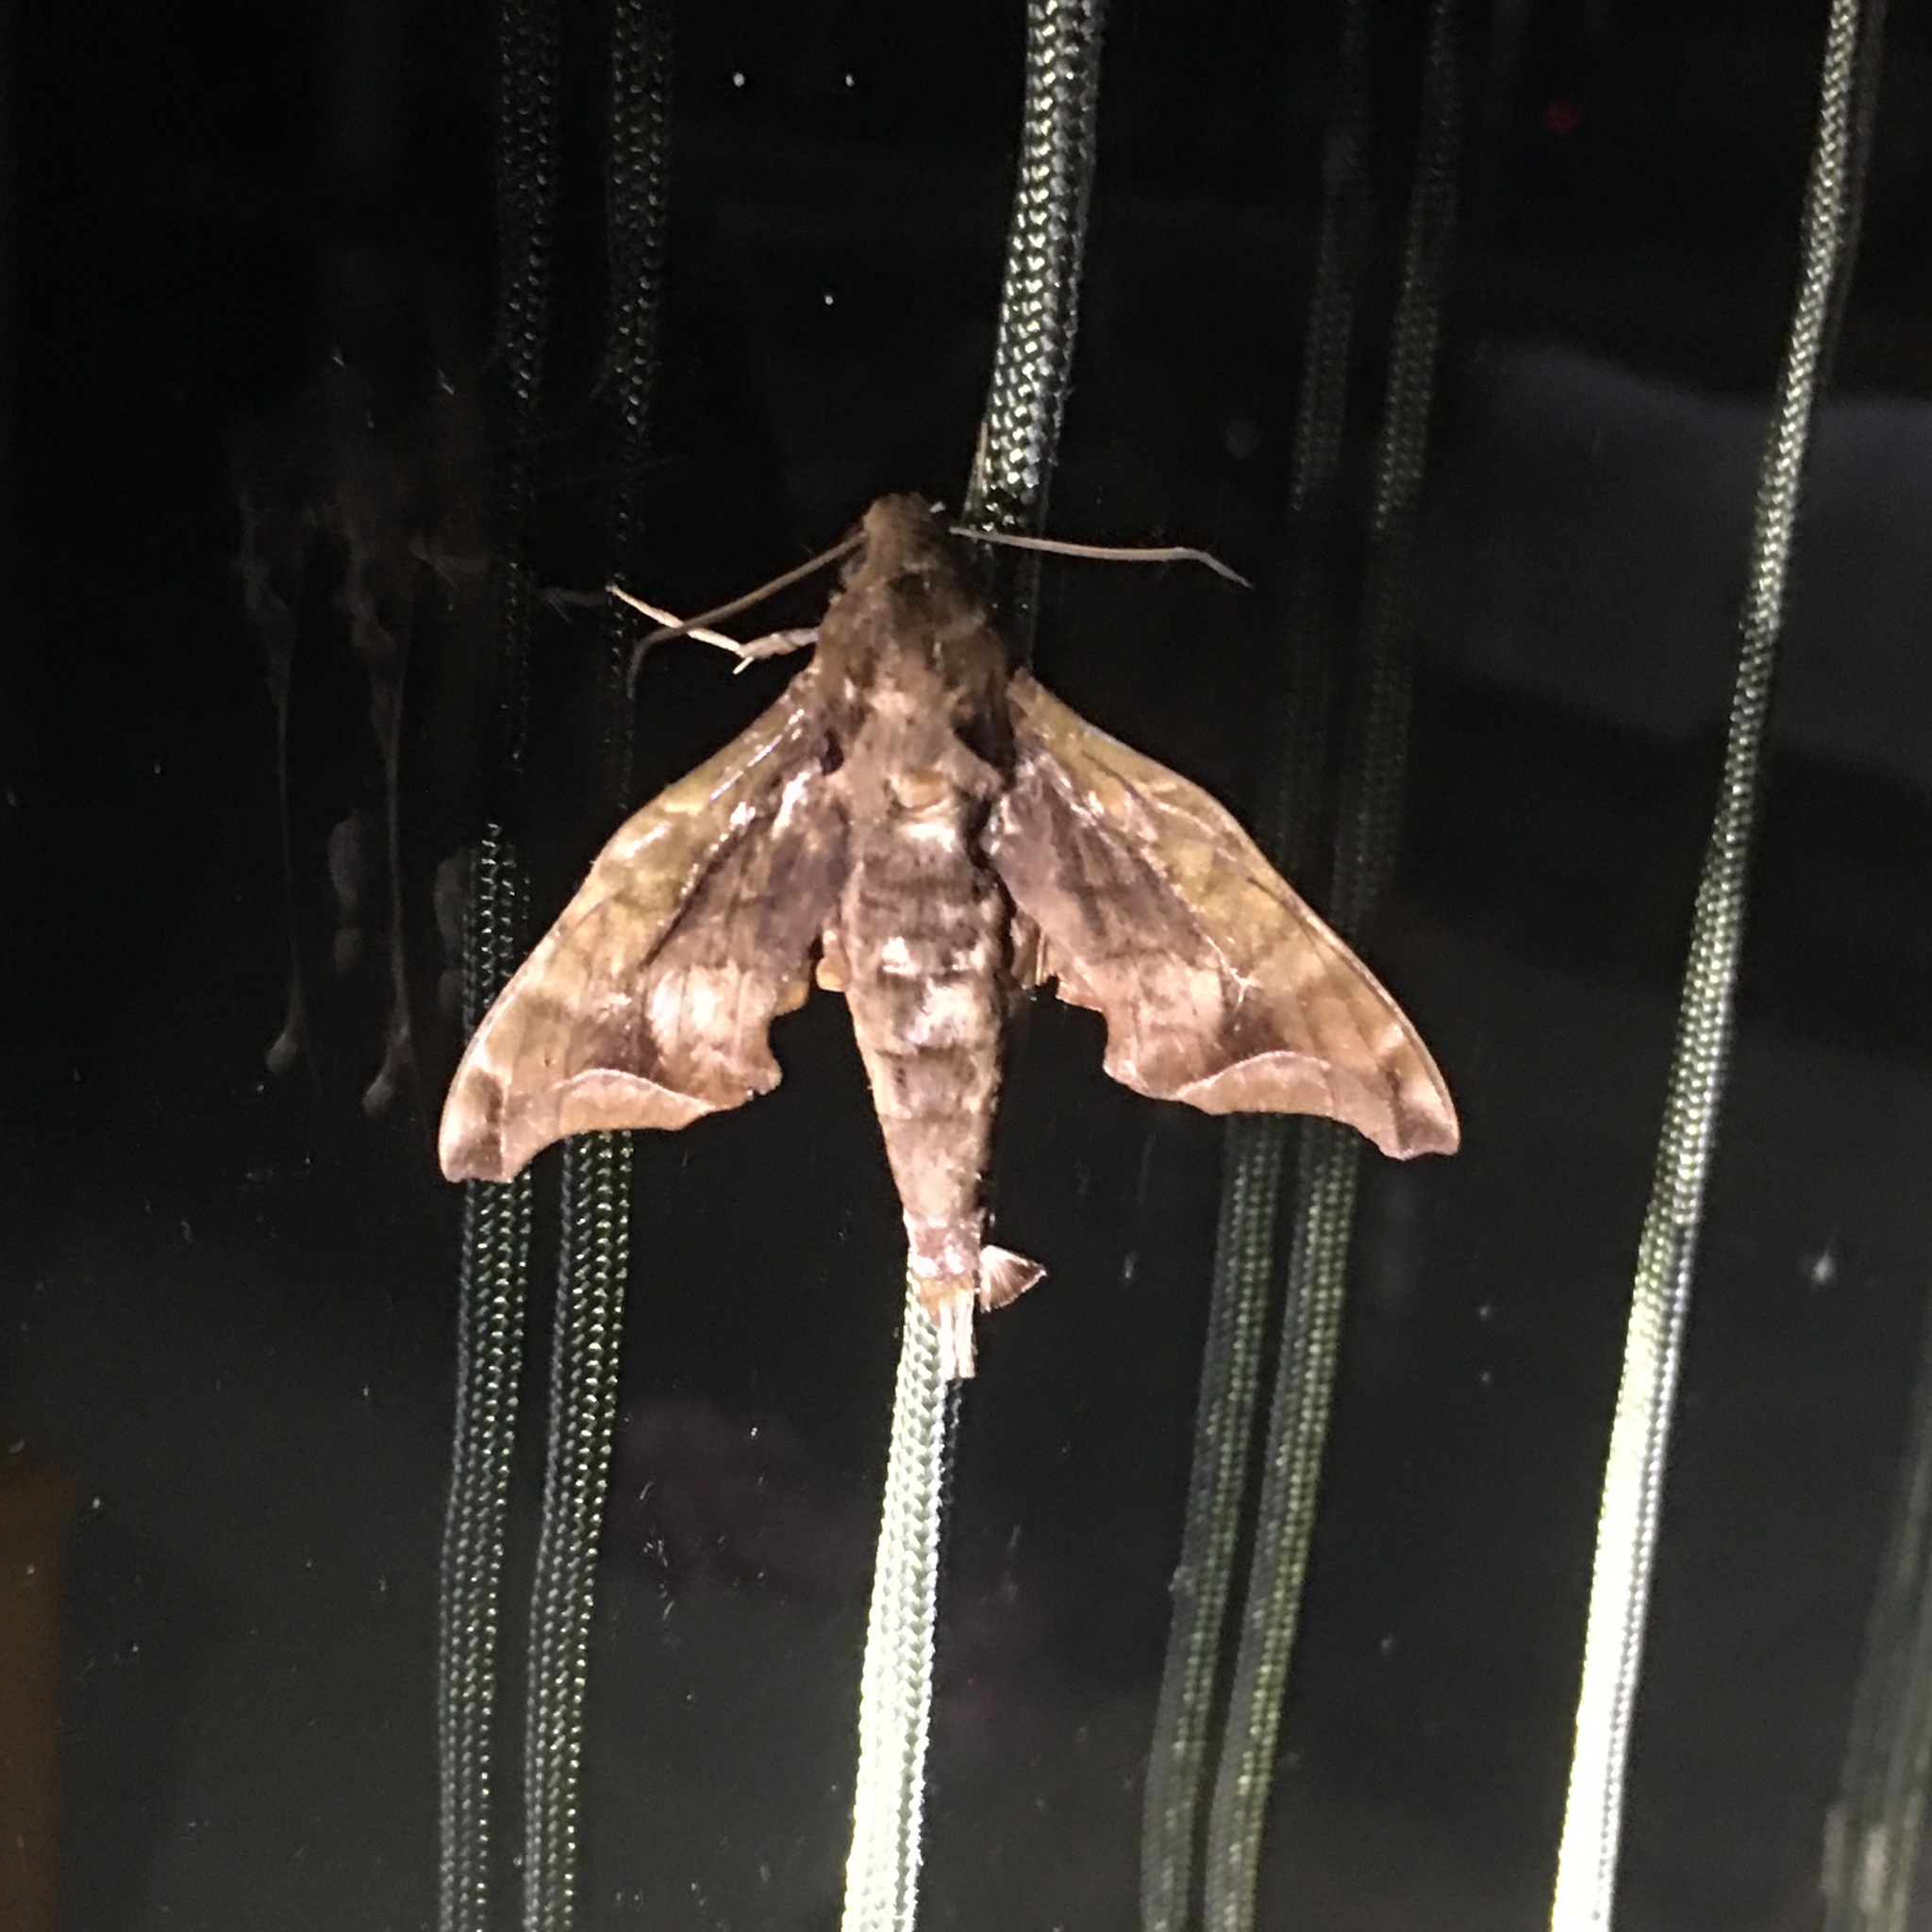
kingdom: Animalia
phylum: Arthropoda
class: Insecta
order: Lepidoptera
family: Sphingidae
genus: Enyo
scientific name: Enyo gorgon
